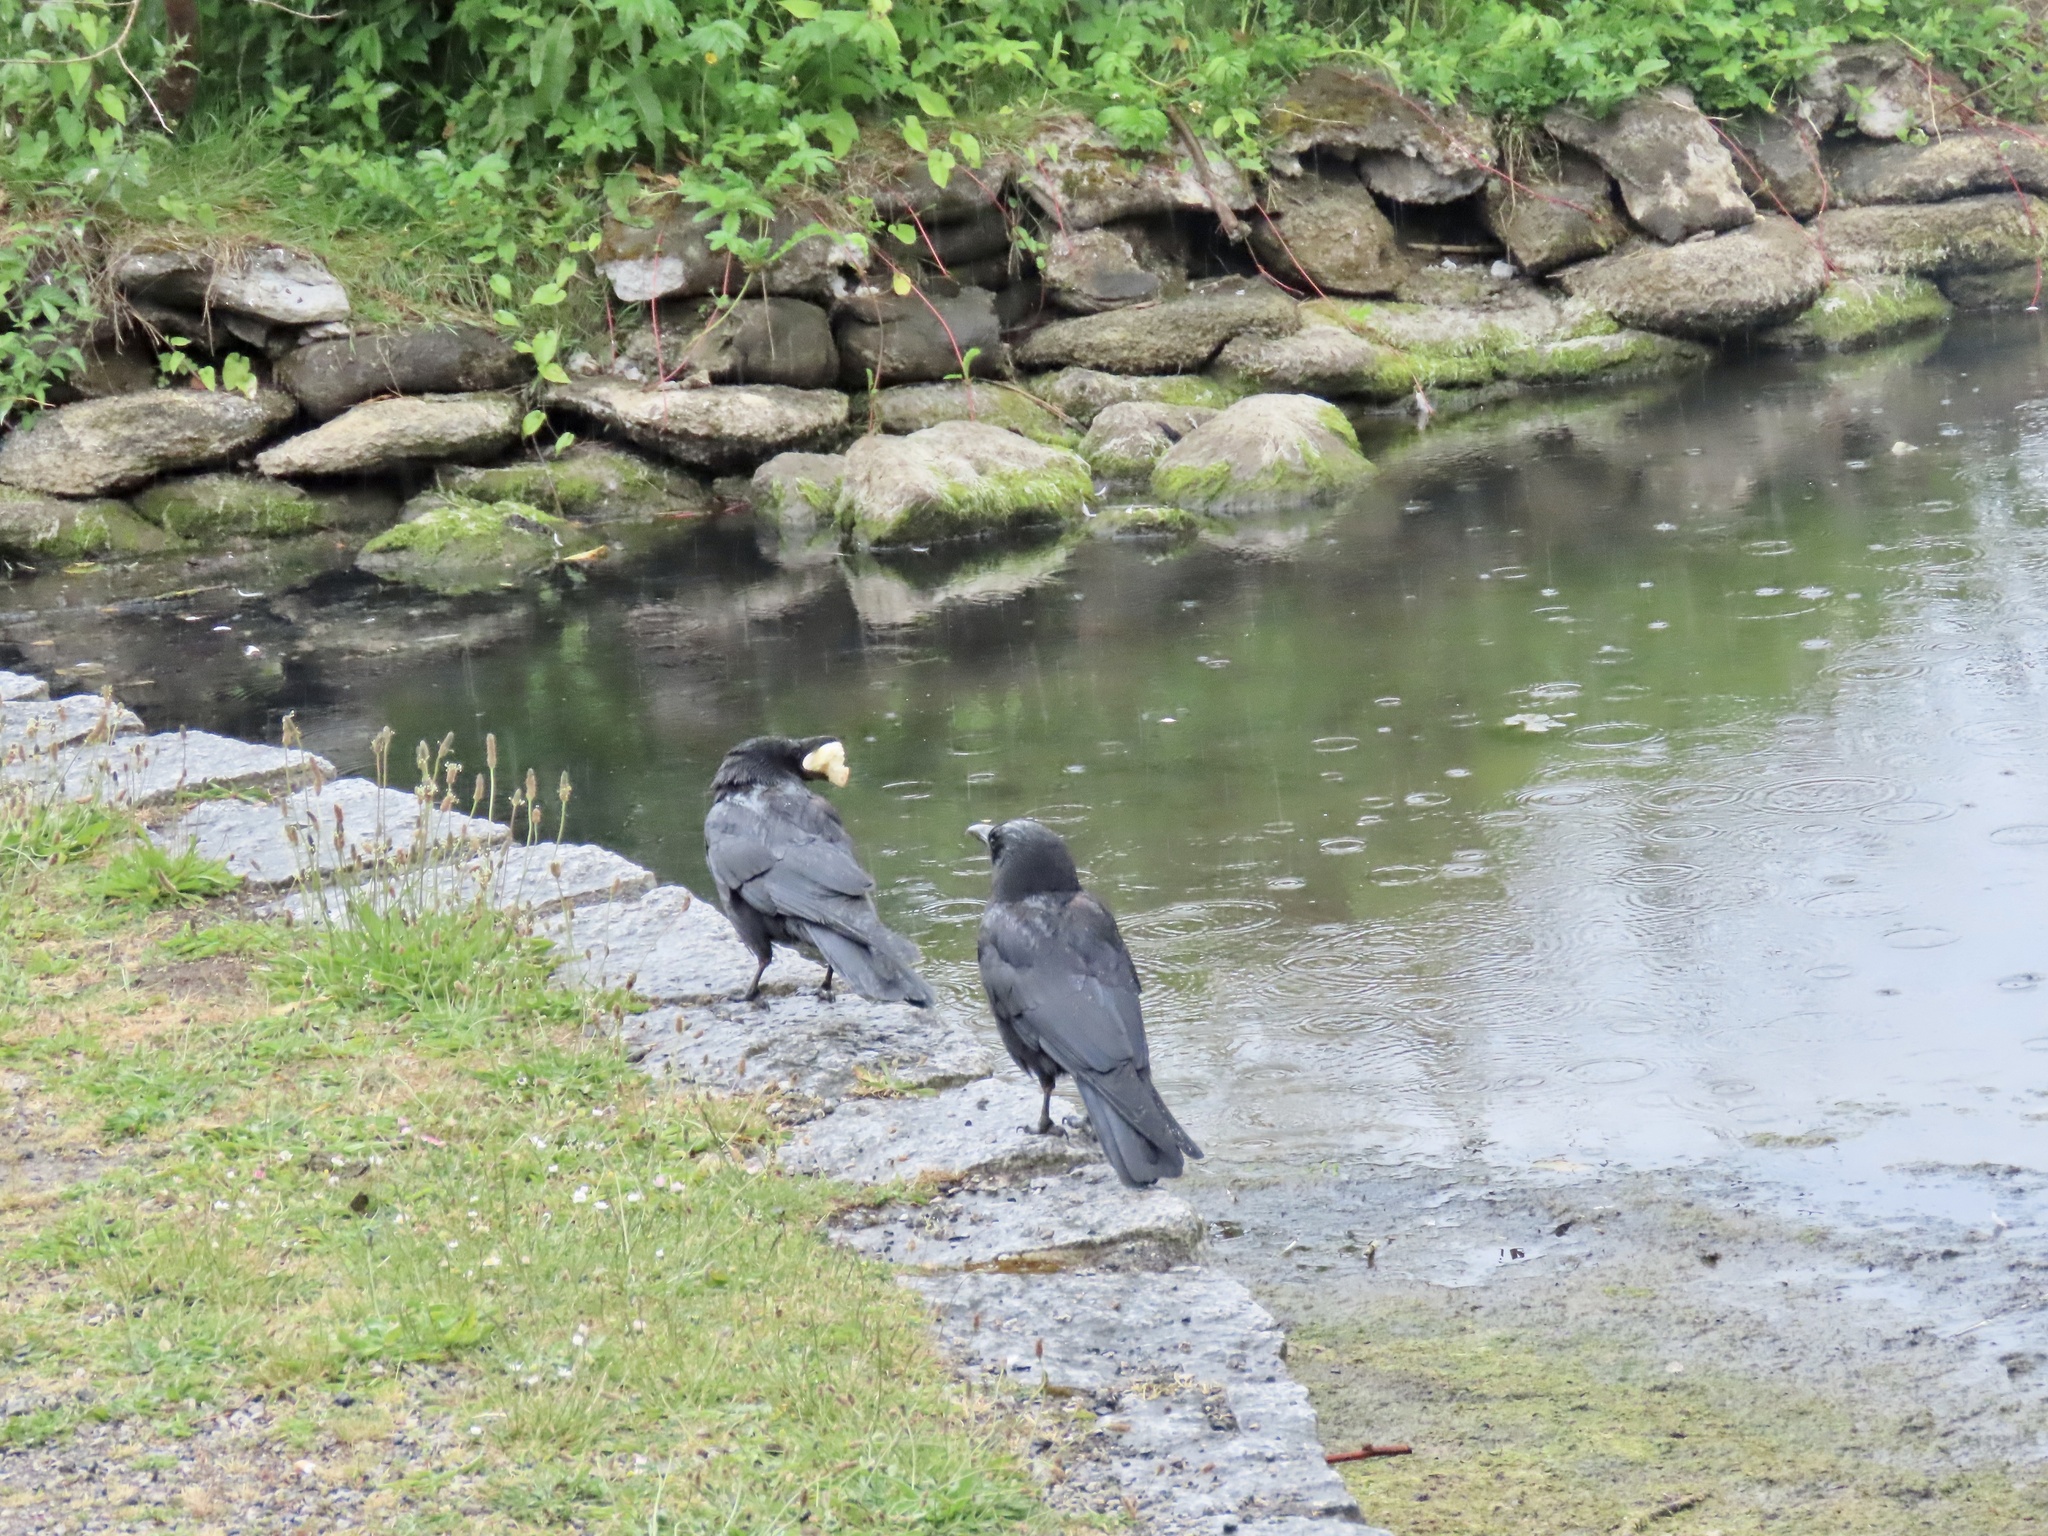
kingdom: Animalia
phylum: Chordata
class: Aves
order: Passeriformes
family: Corvidae
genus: Corvus
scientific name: Corvus brachyrhynchos
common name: American crow
